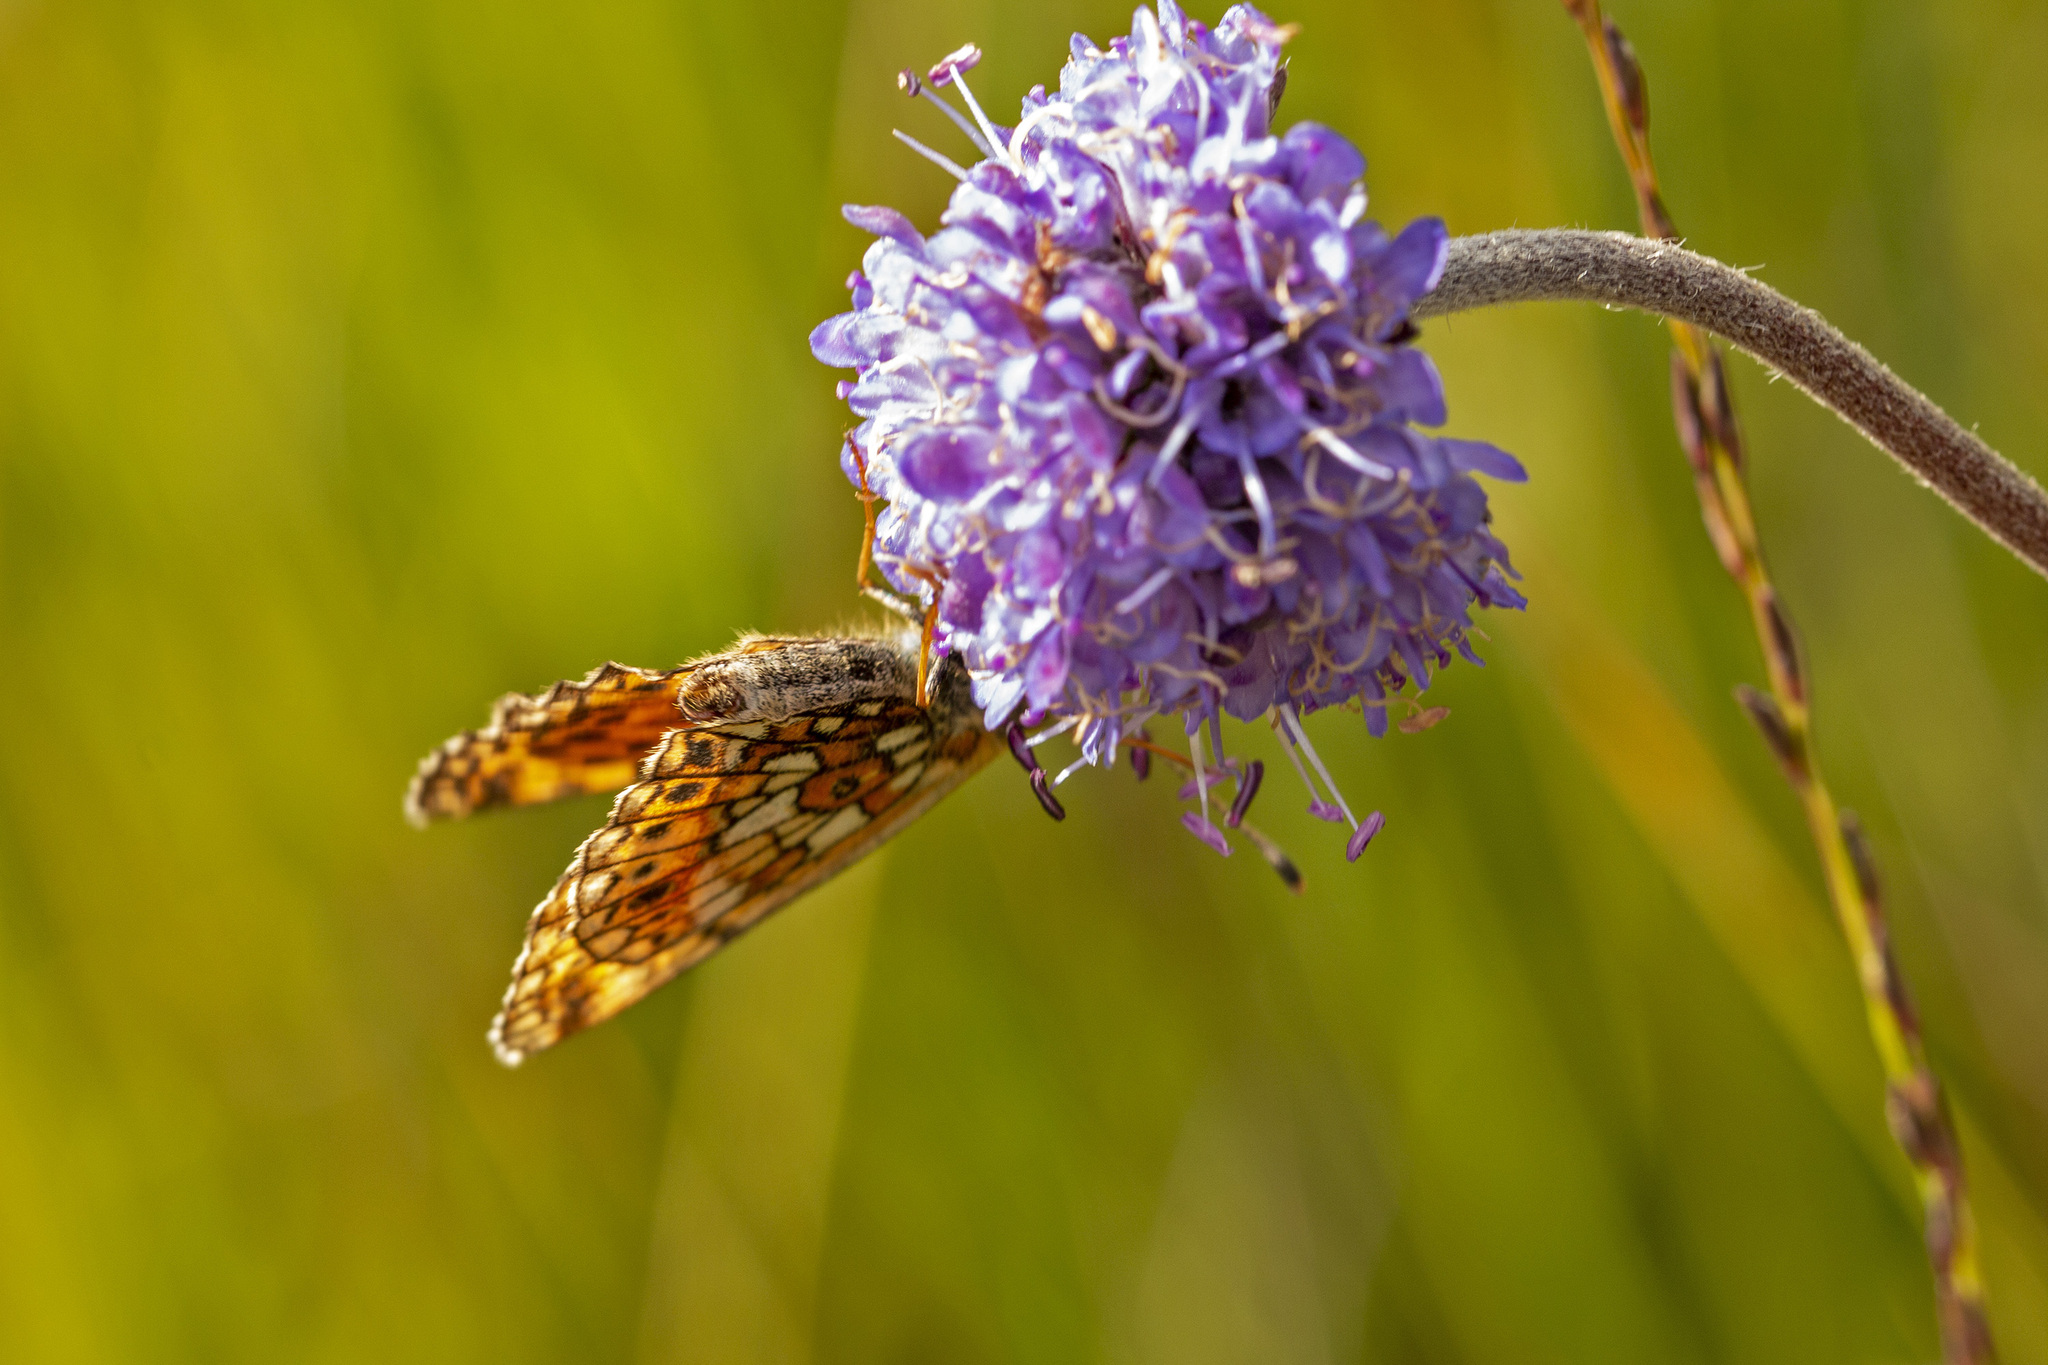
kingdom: Animalia
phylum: Arthropoda
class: Insecta
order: Lepidoptera
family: Nymphalidae
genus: Boloria
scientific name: Boloria selene
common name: Small pearl-bordered fritillary
